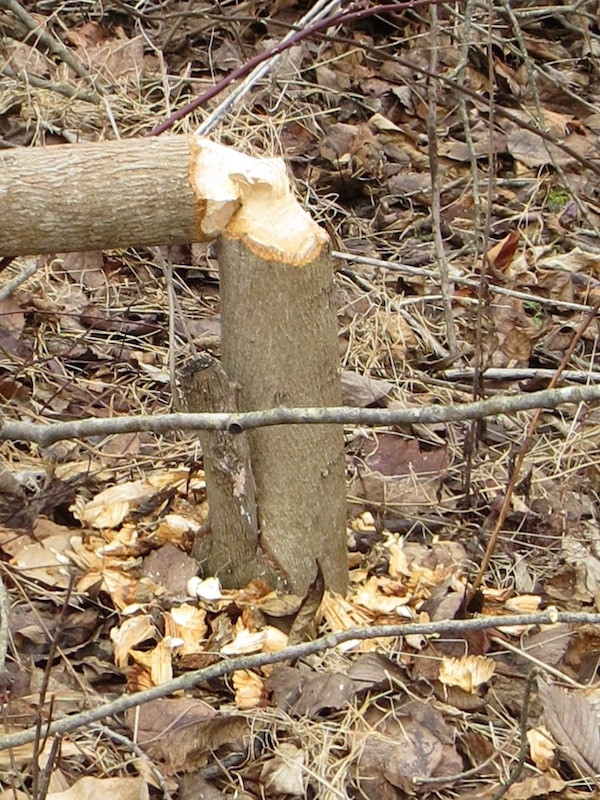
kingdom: Animalia
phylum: Chordata
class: Mammalia
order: Rodentia
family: Castoridae
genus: Castor
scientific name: Castor canadensis
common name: American beaver
